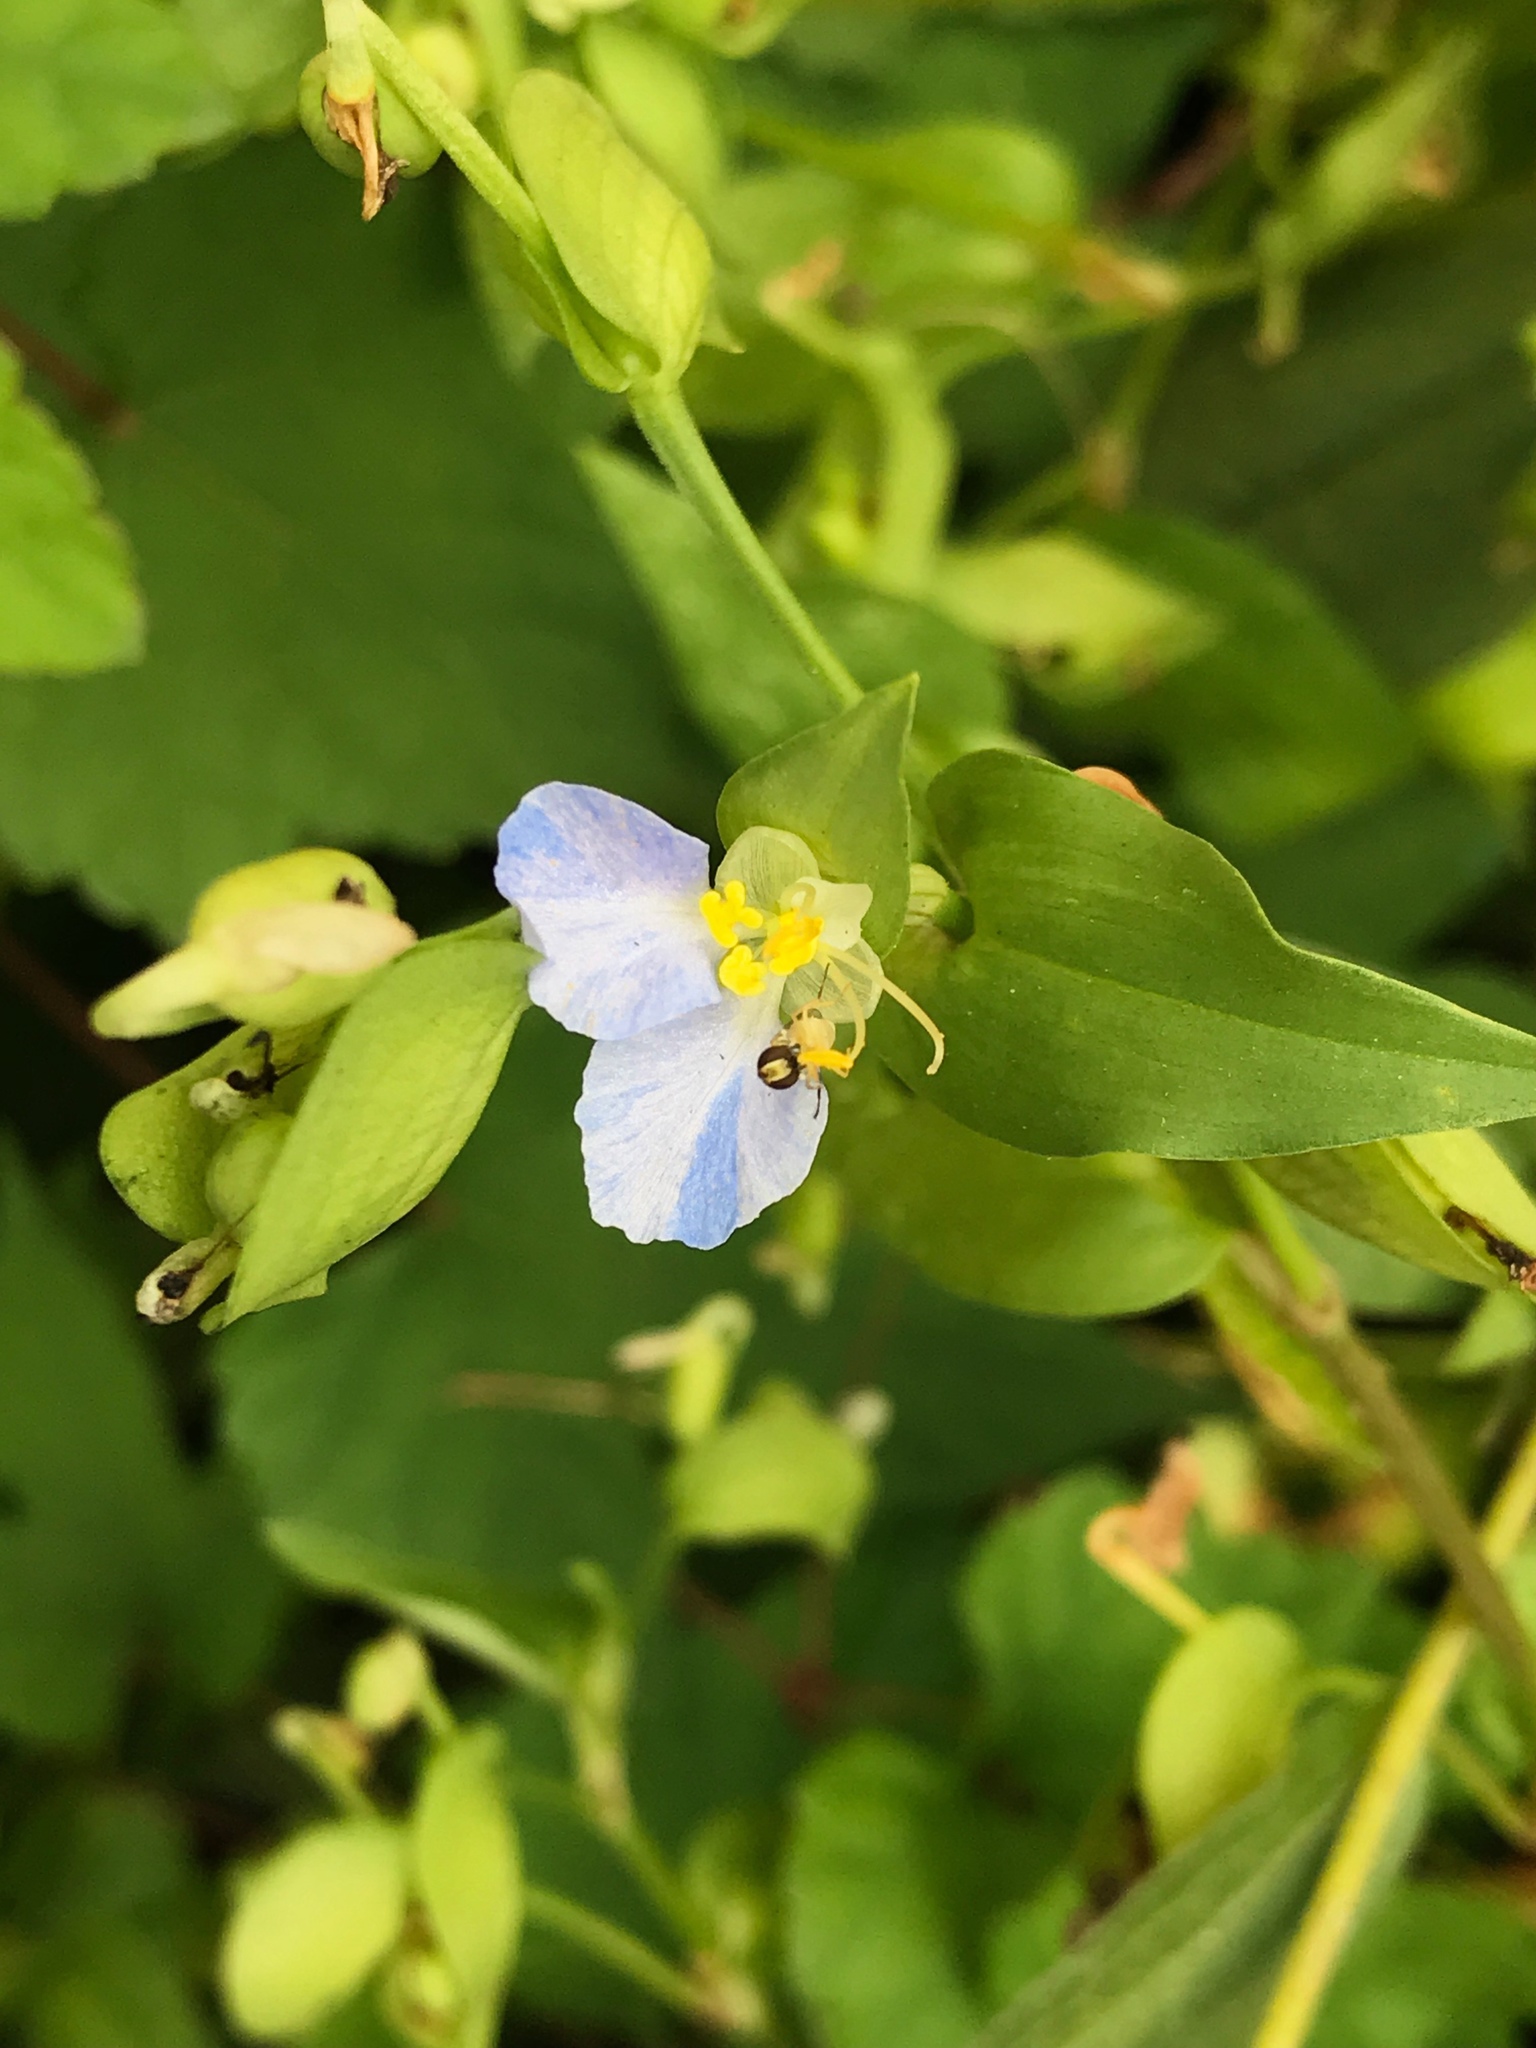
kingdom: Plantae
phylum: Tracheophyta
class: Liliopsida
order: Commelinales
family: Commelinaceae
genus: Commelina
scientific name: Commelina communis
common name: Asiatic dayflower
